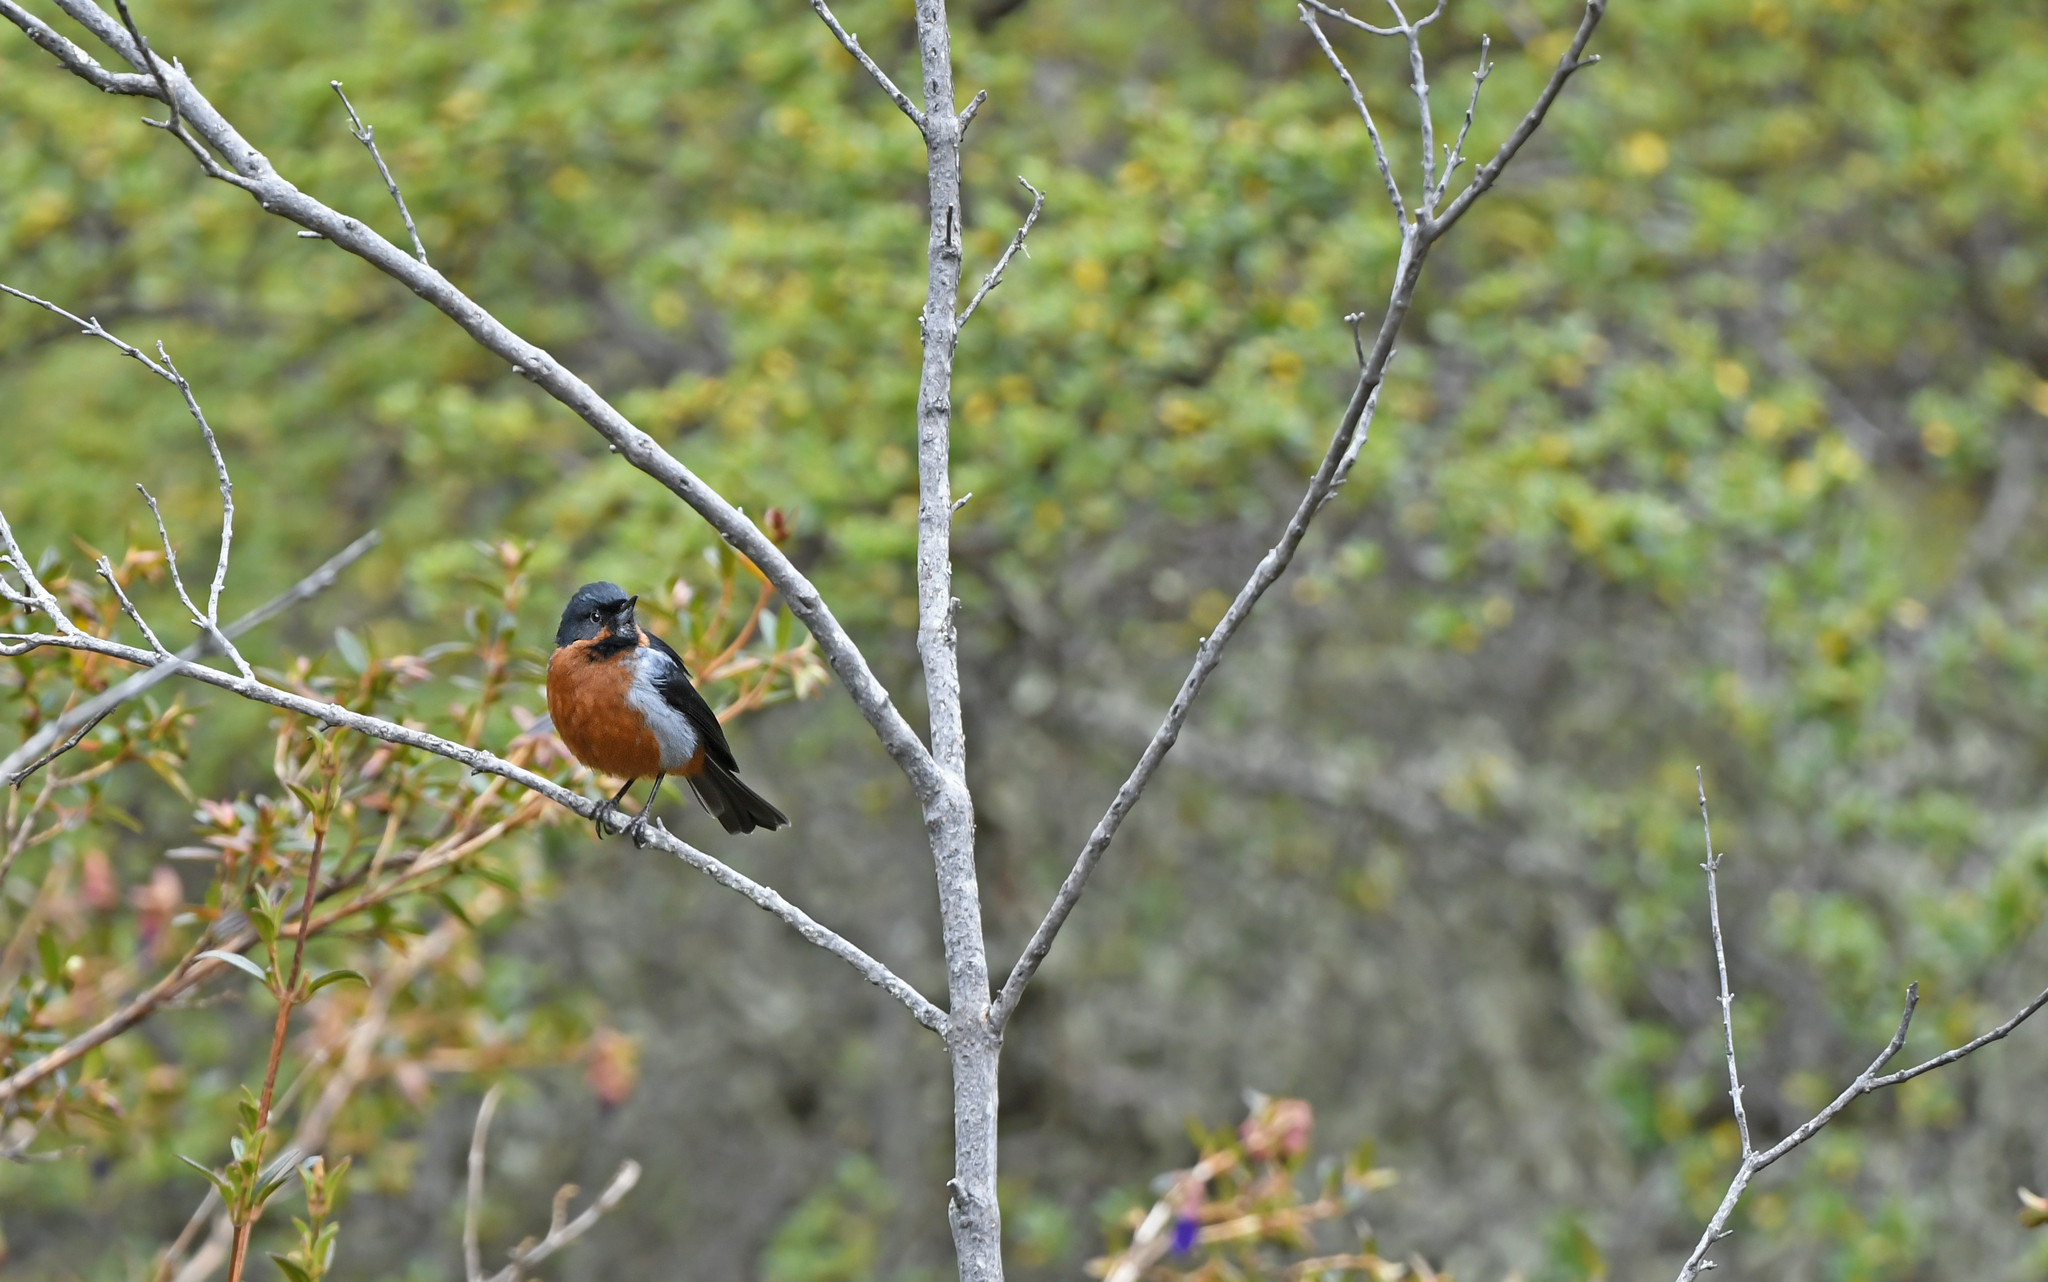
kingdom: Animalia
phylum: Chordata
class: Aves
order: Passeriformes
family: Thraupidae
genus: Diglossa
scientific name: Diglossa brunneiventris
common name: Black-throated flowerpiercer
